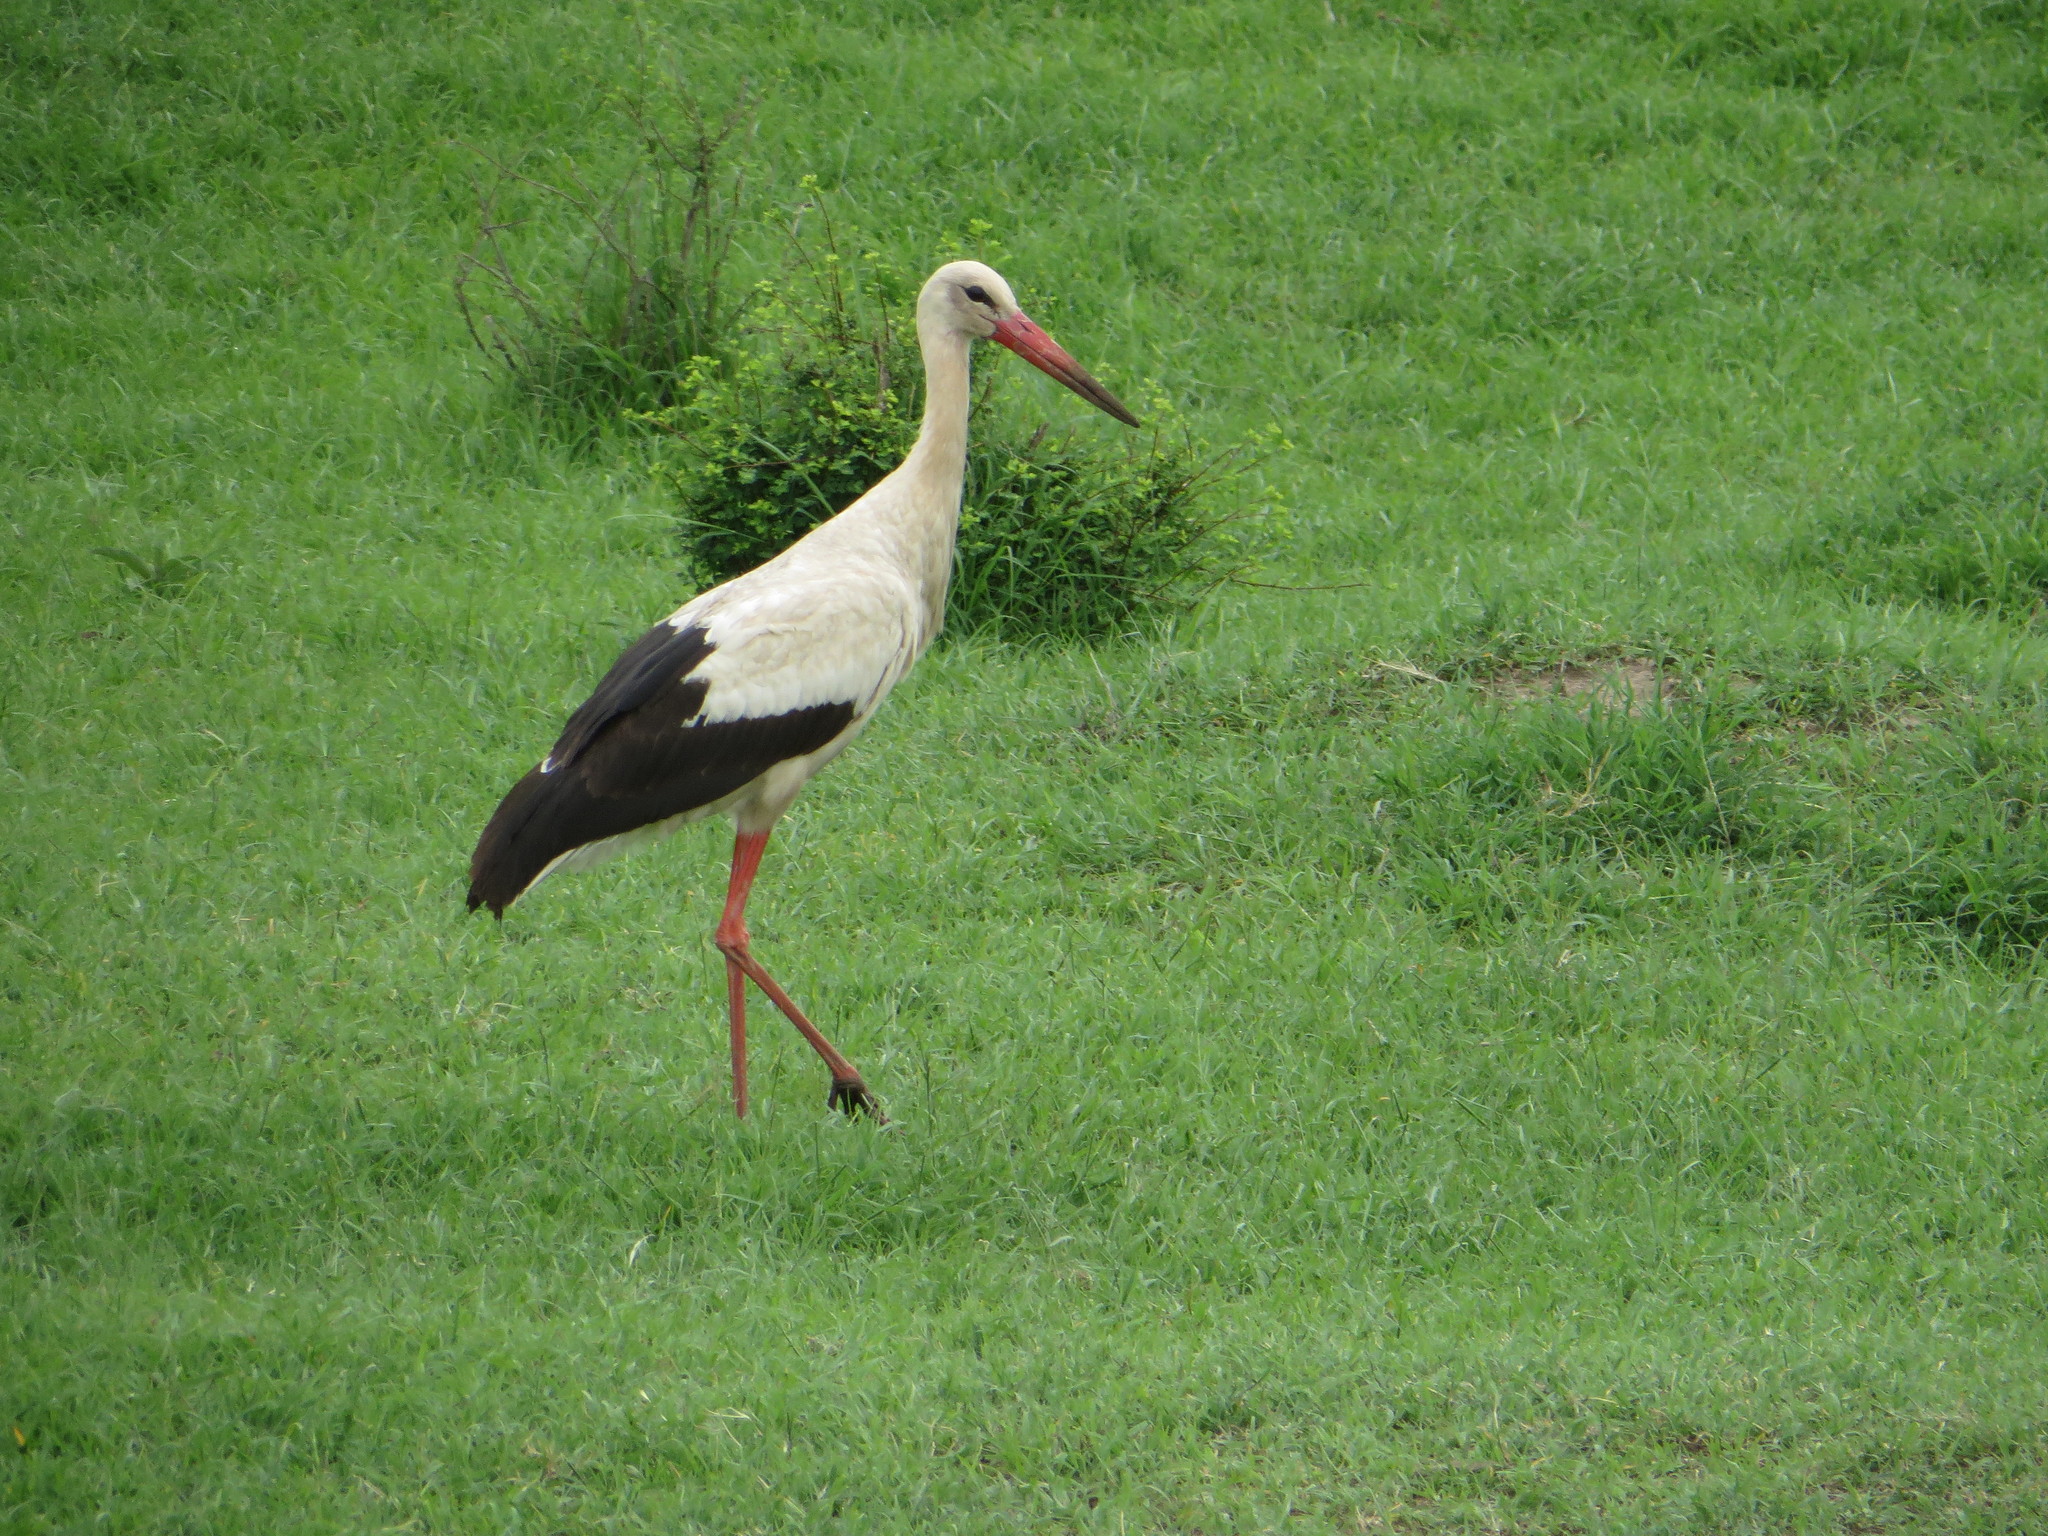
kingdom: Animalia
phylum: Chordata
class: Aves
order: Ciconiiformes
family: Ciconiidae
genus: Ciconia
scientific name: Ciconia ciconia
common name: White stork
